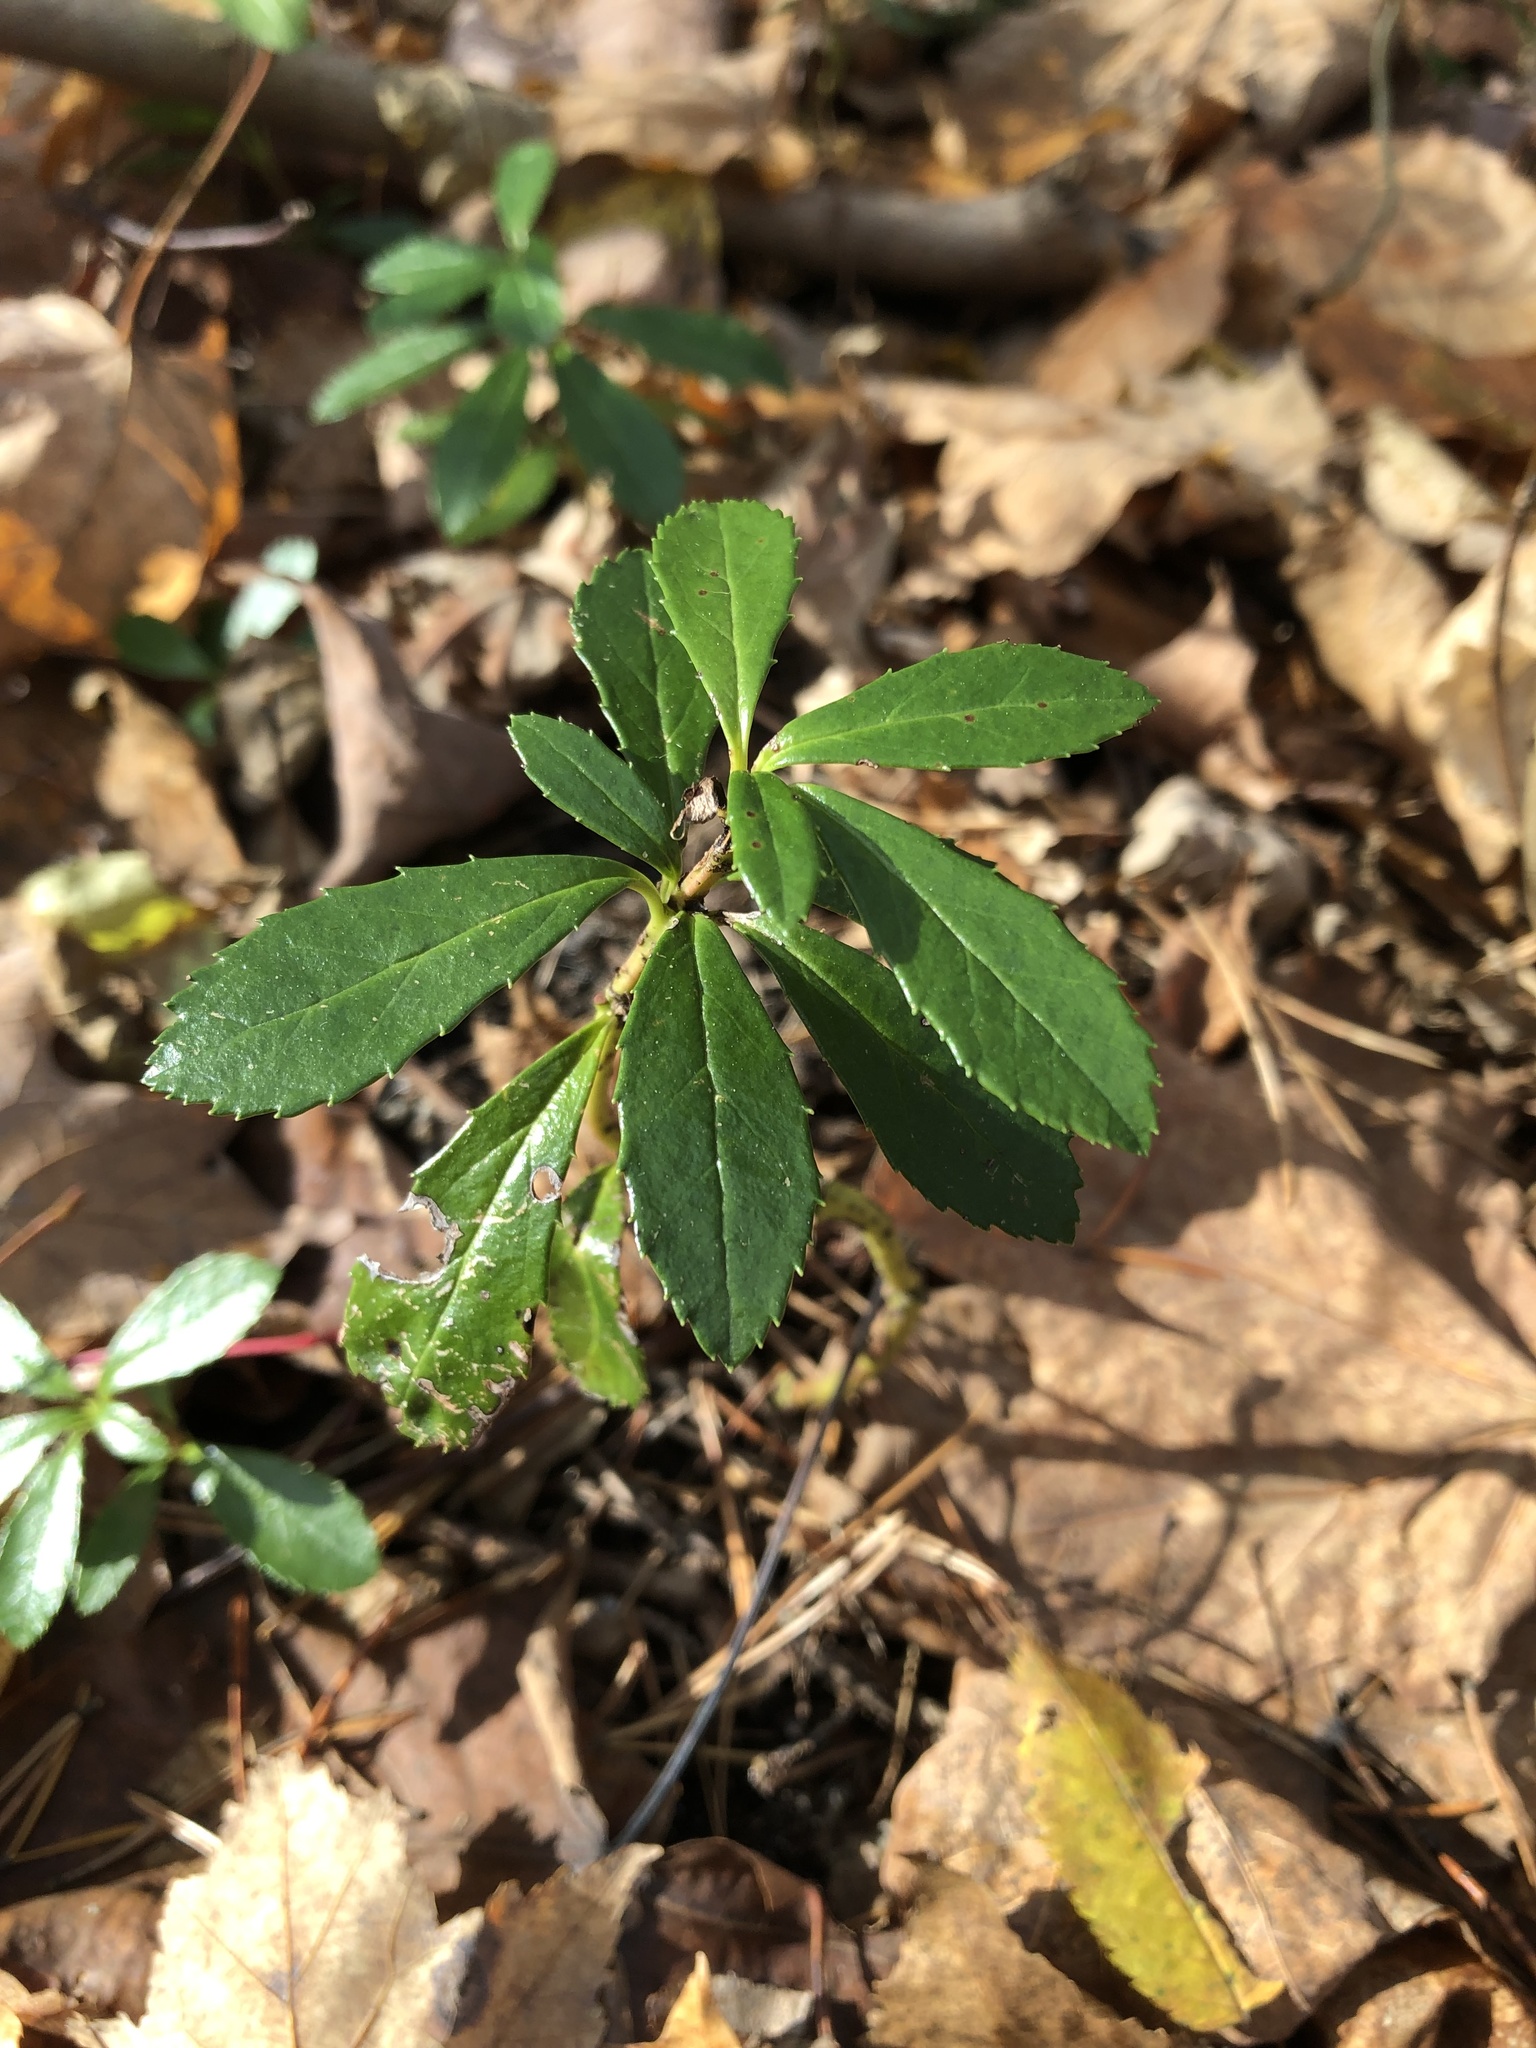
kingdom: Plantae
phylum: Tracheophyta
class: Magnoliopsida
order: Ericales
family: Ericaceae
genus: Chimaphila
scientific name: Chimaphila umbellata
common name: Pipsissewa
